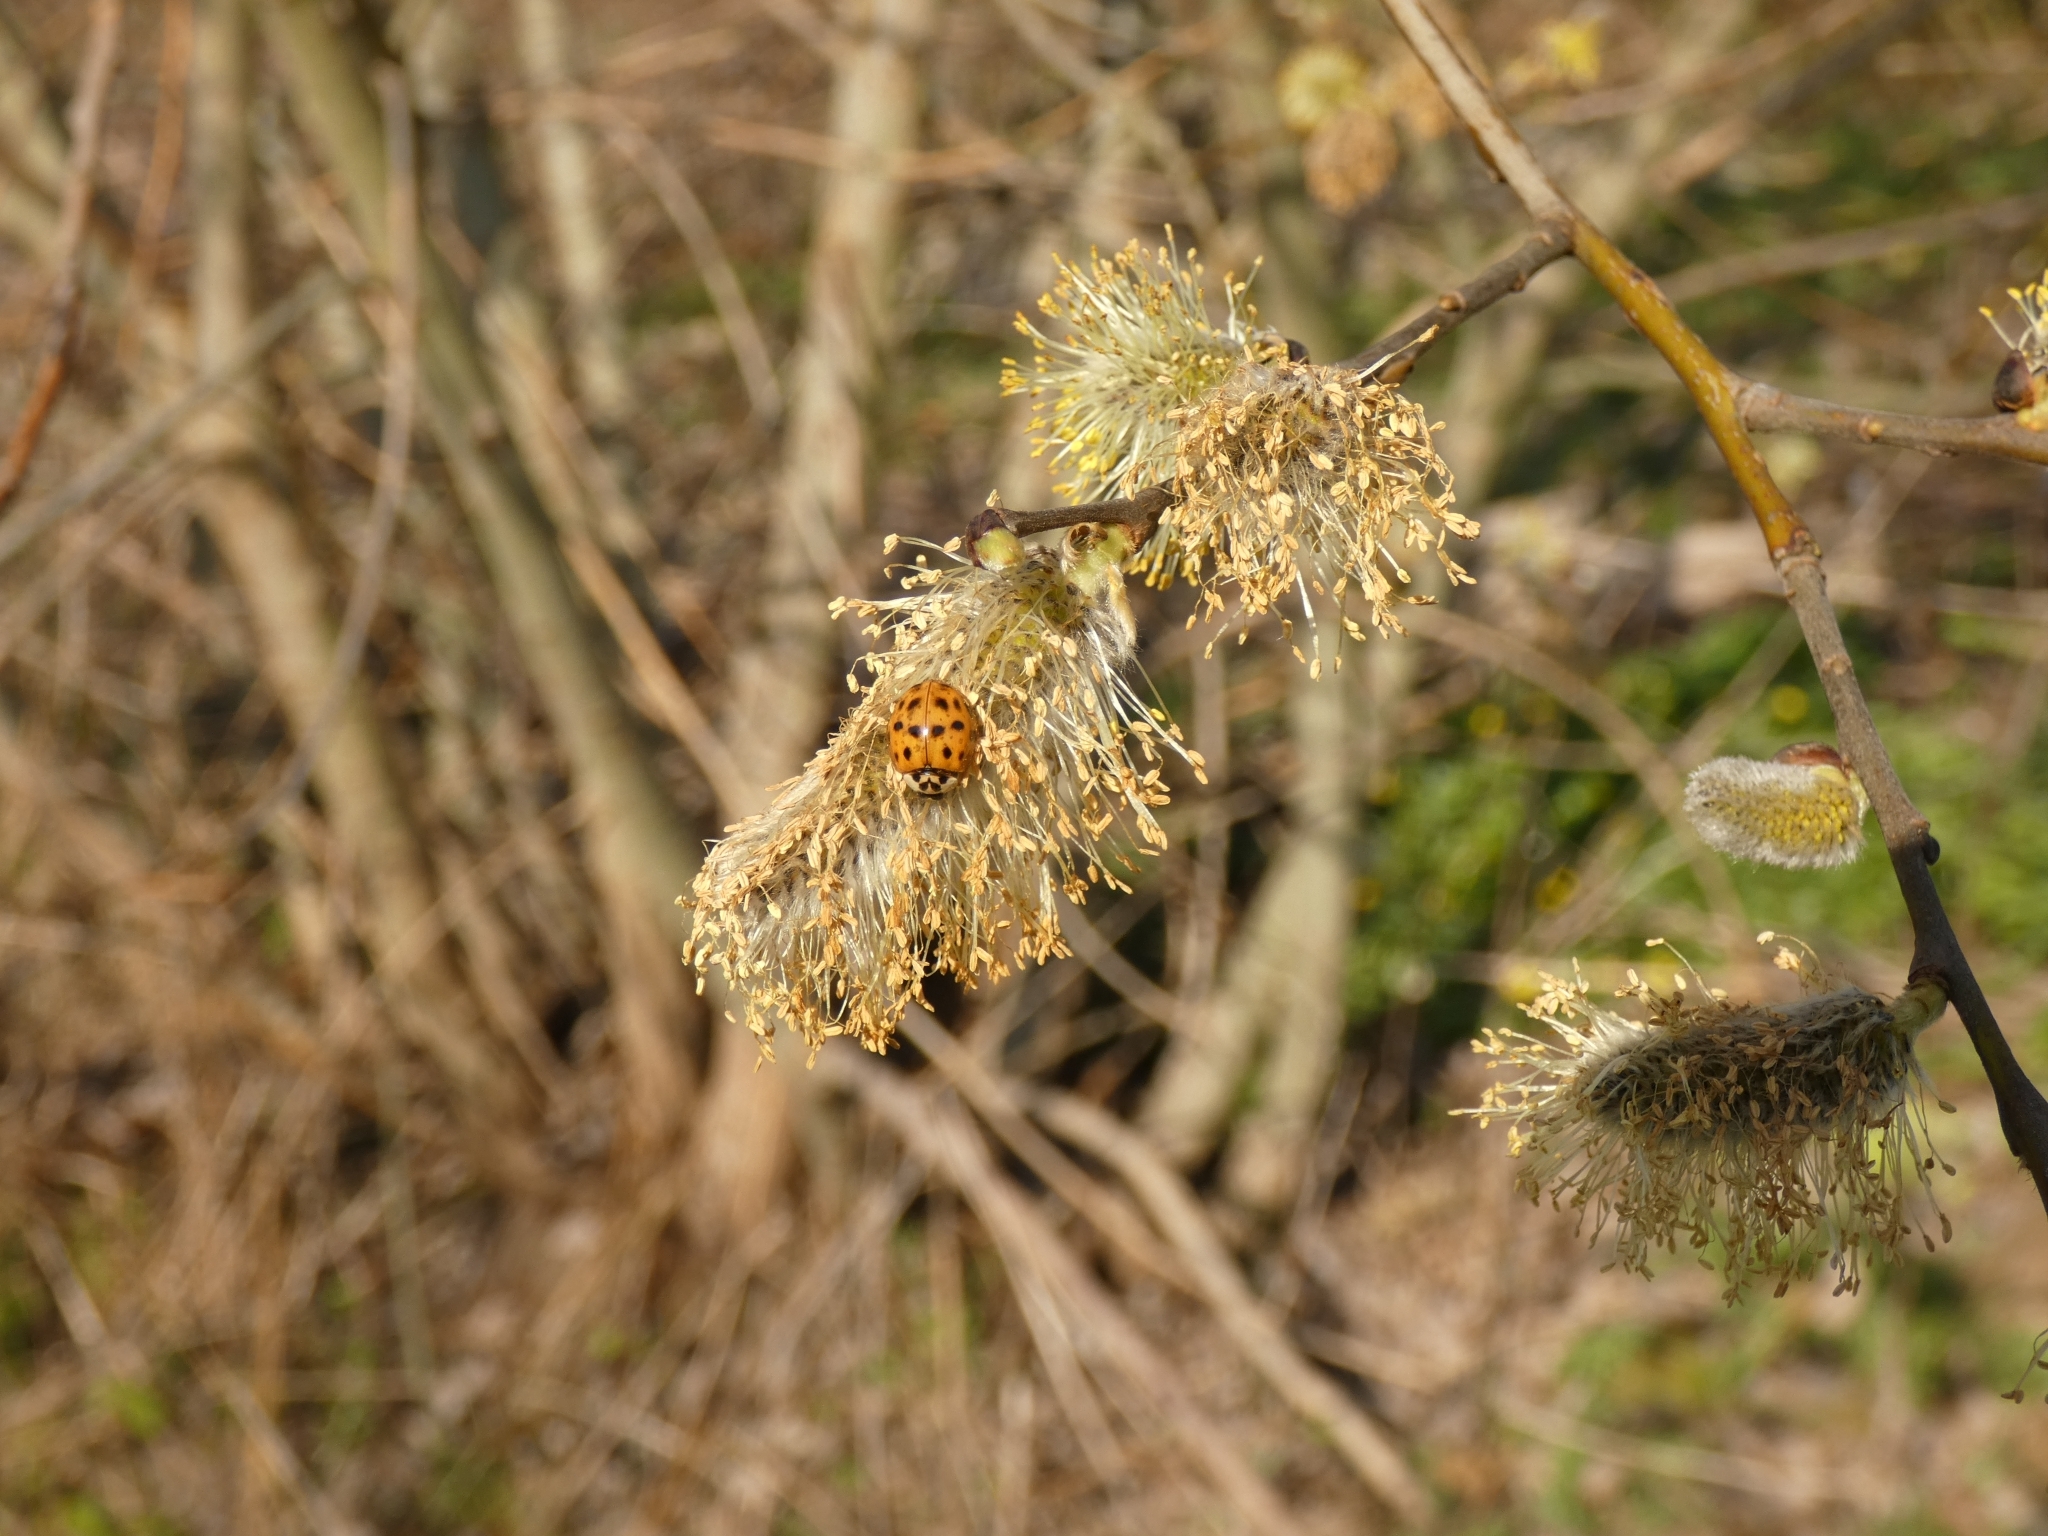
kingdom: Animalia
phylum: Arthropoda
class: Insecta
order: Coleoptera
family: Coccinellidae
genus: Harmonia
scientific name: Harmonia axyridis
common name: Harlequin ladybird
